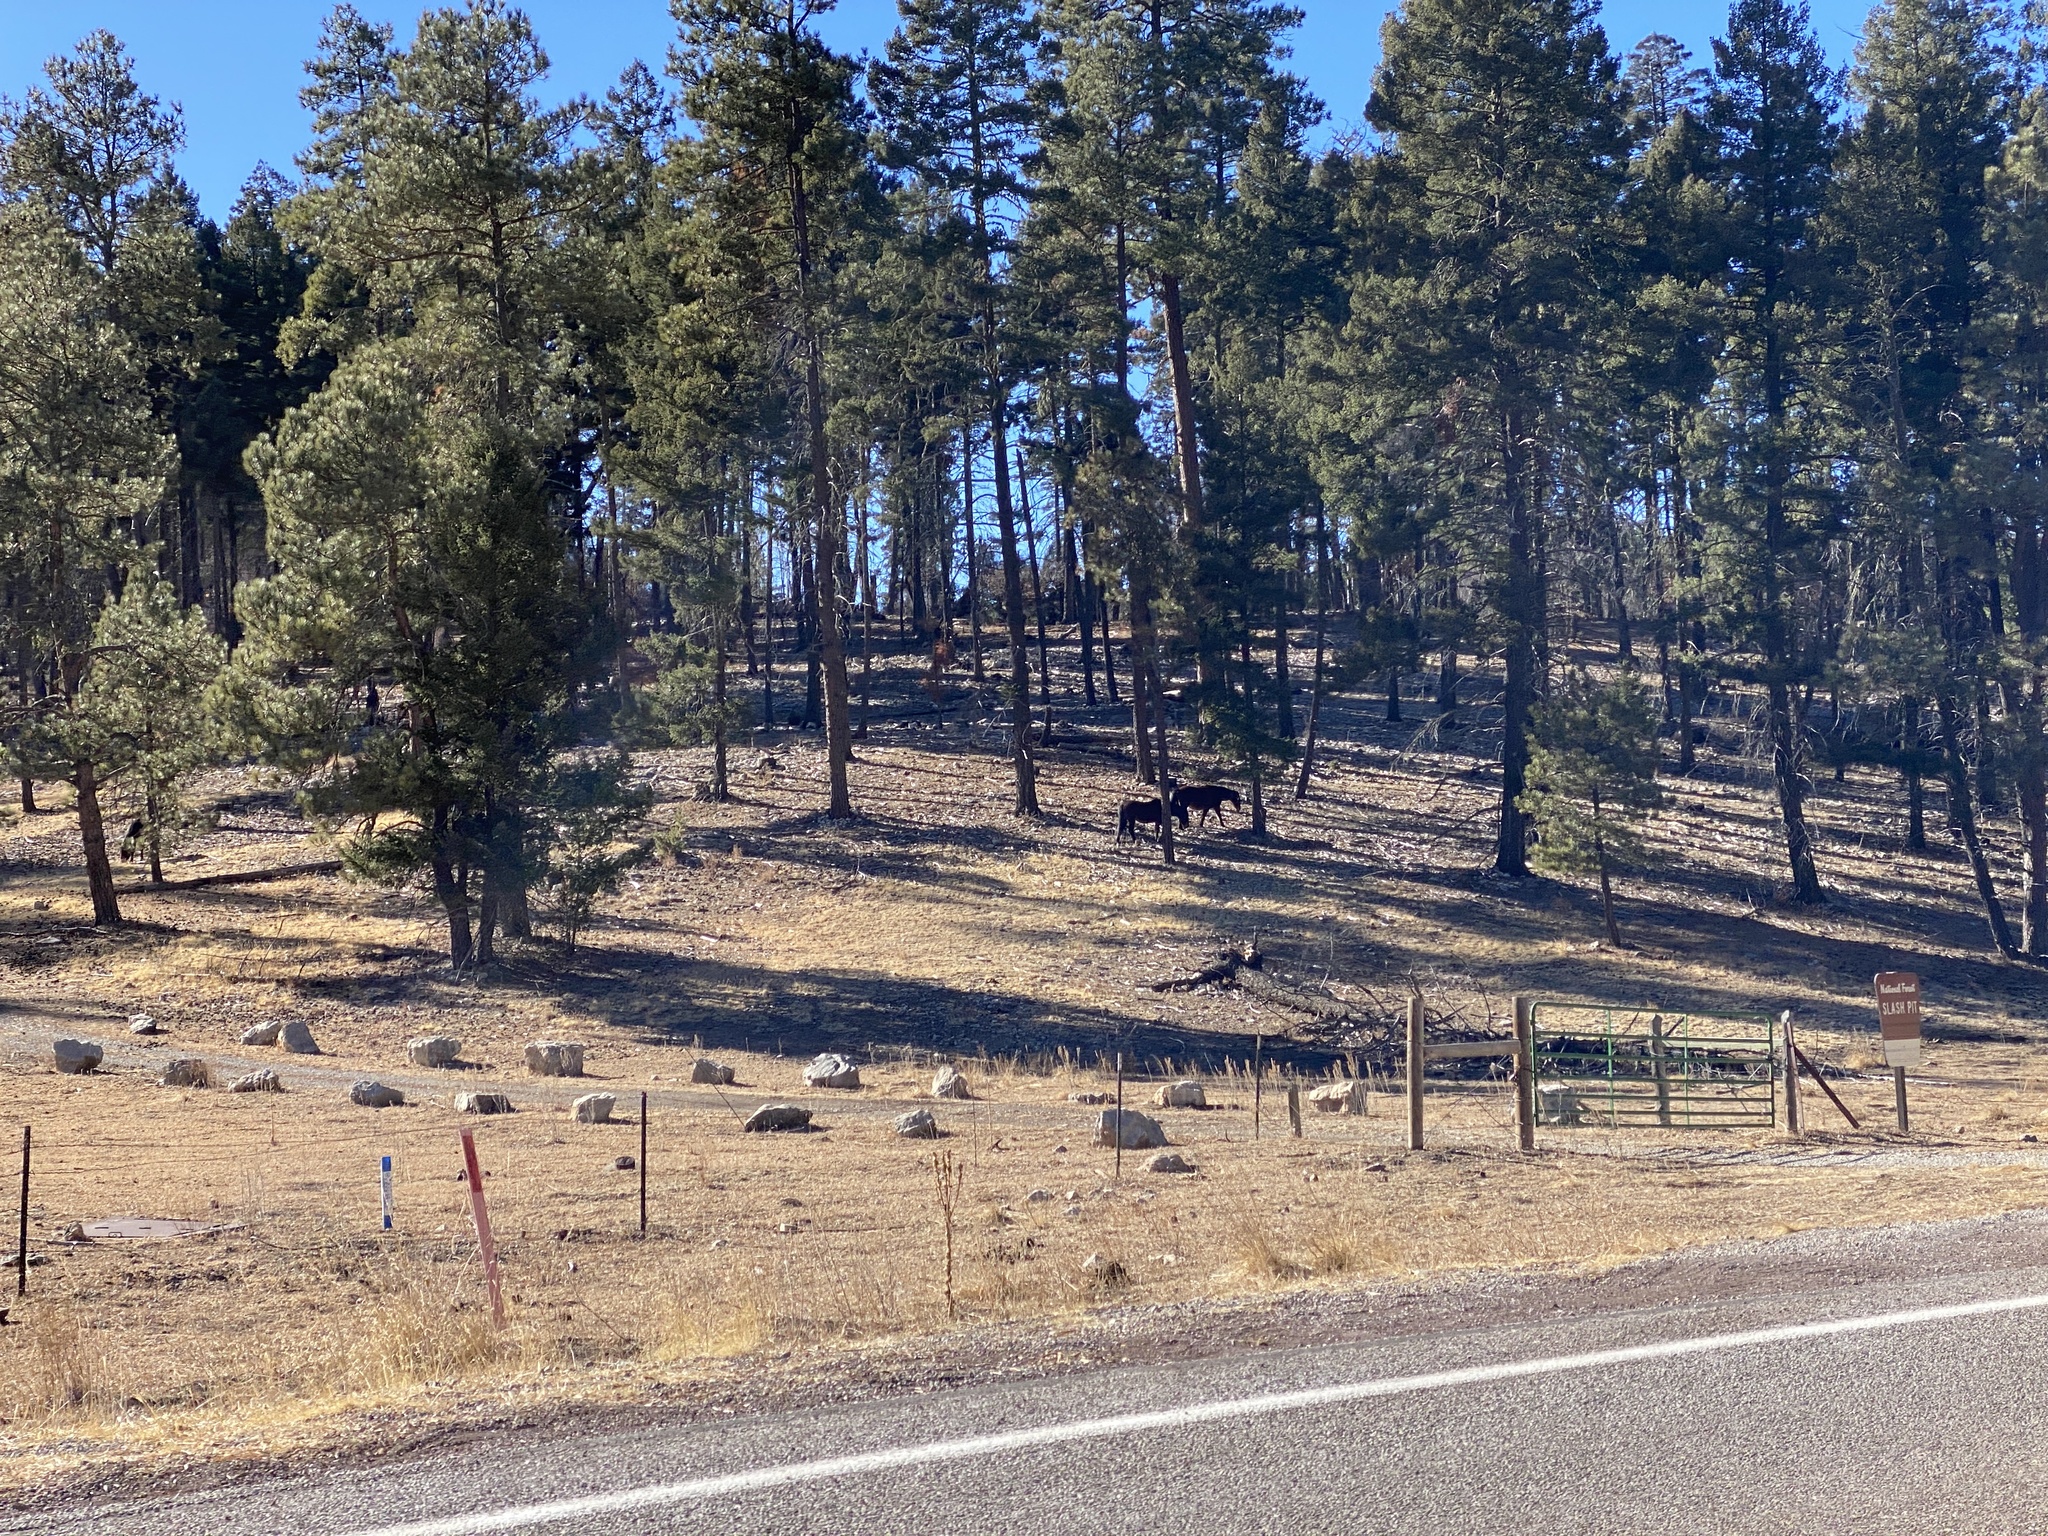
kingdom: Animalia
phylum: Chordata
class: Mammalia
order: Perissodactyla
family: Equidae
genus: Equus
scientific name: Equus caballus
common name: Horse
